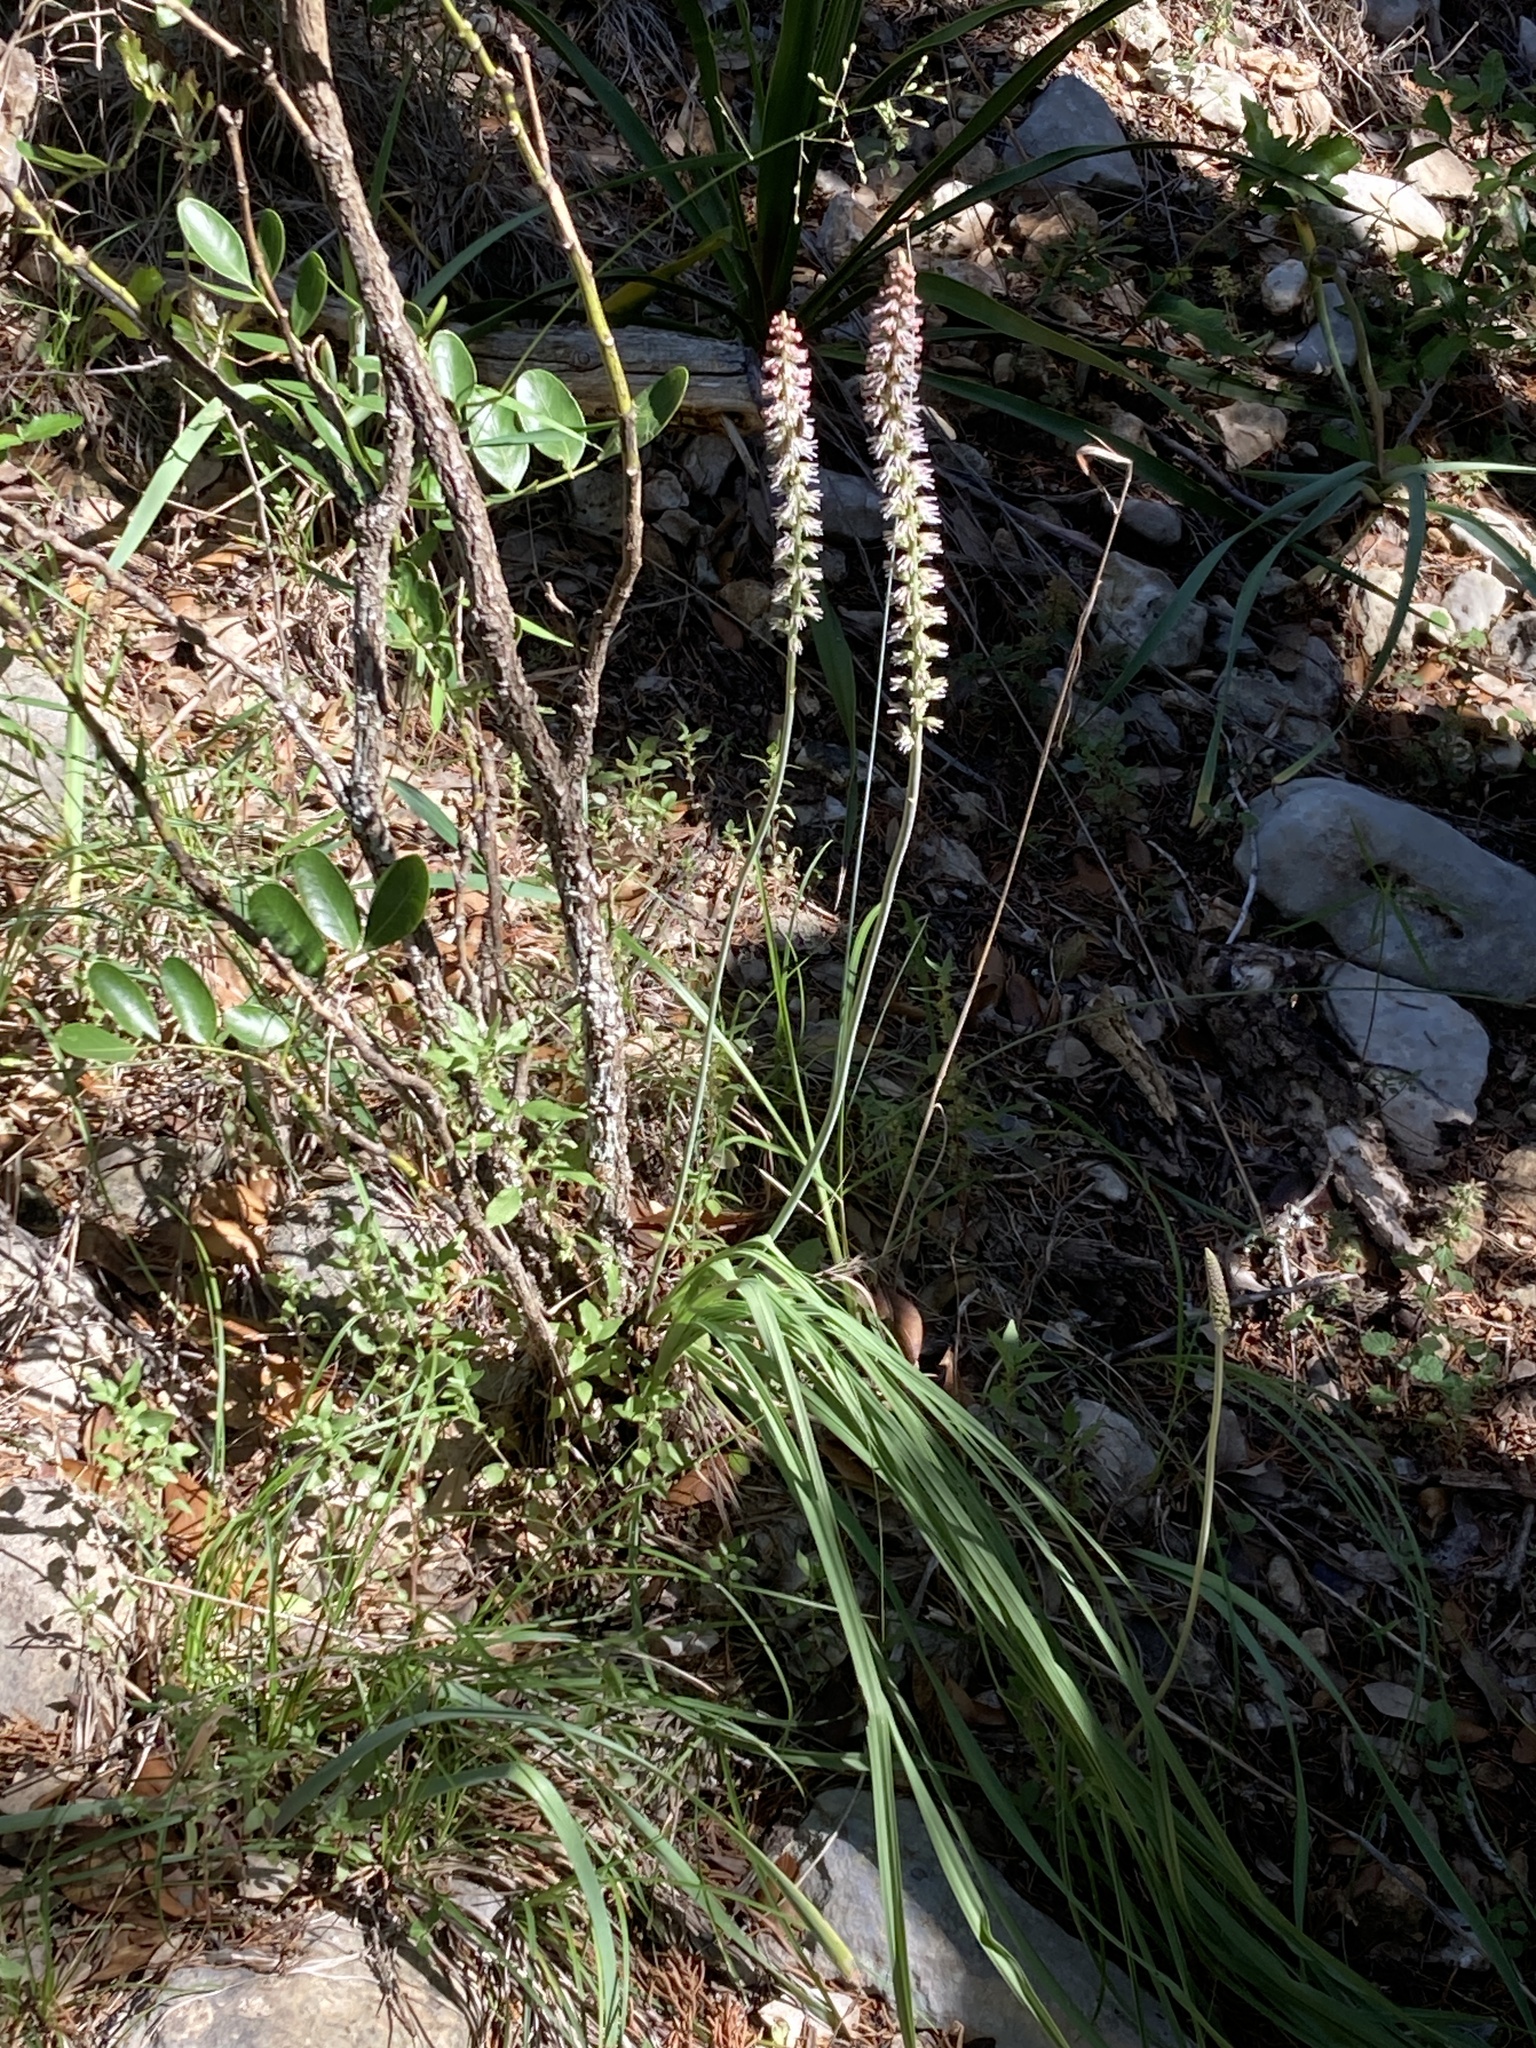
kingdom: Plantae
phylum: Tracheophyta
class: Liliopsida
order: Liliales
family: Melanthiaceae
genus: Schoenocaulon
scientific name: Schoenocaulon texanum
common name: Texas feather-shank
